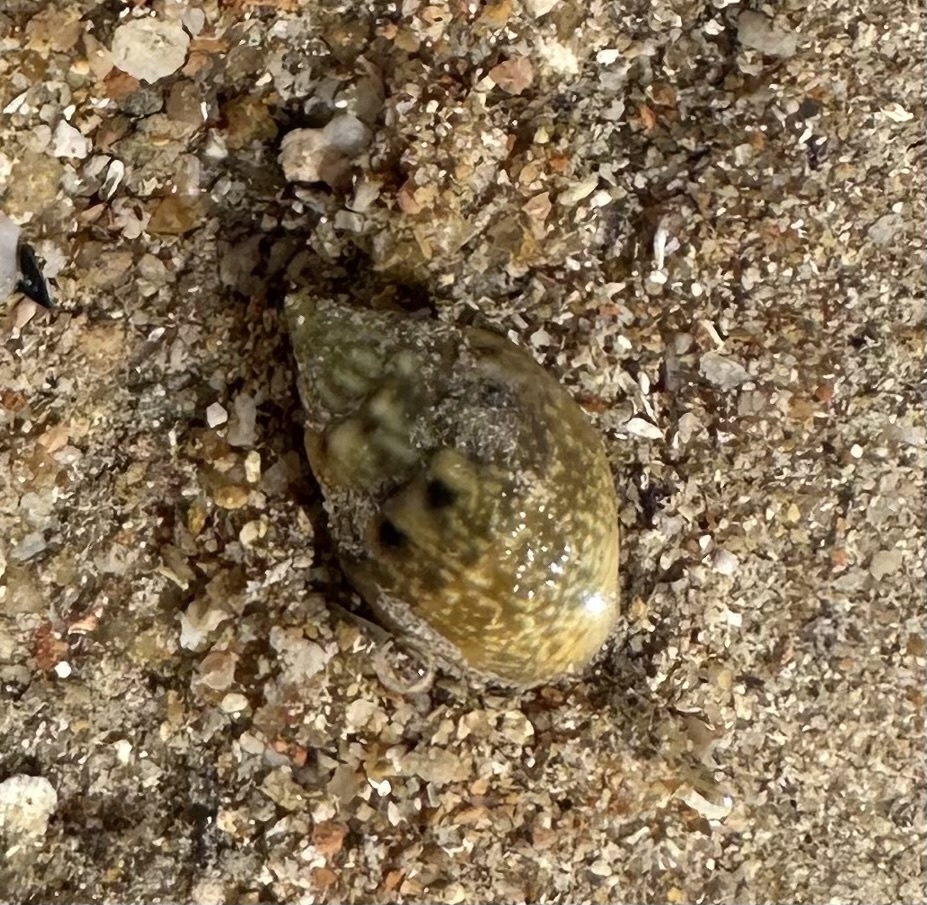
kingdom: Animalia
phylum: Mollusca
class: Gastropoda
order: Neogastropoda
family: Nassariidae
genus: Nassarius
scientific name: Nassarius graphiterus
